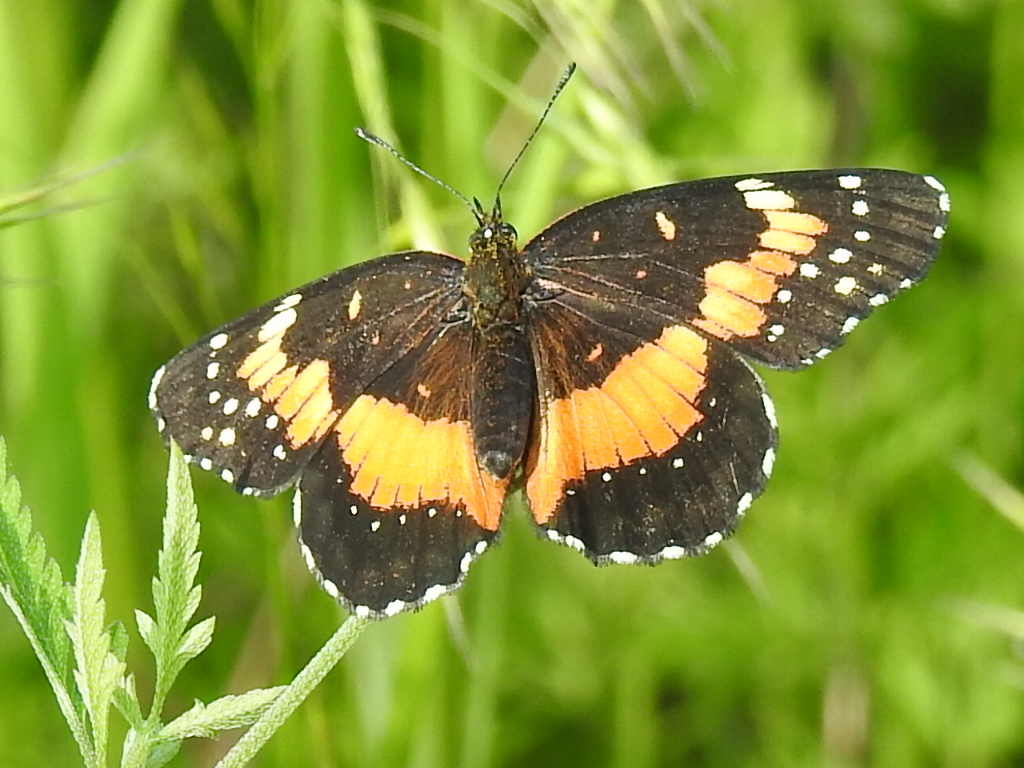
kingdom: Animalia
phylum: Arthropoda
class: Insecta
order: Lepidoptera
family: Nymphalidae
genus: Chlosyne
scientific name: Chlosyne lacinia
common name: Bordered patch
